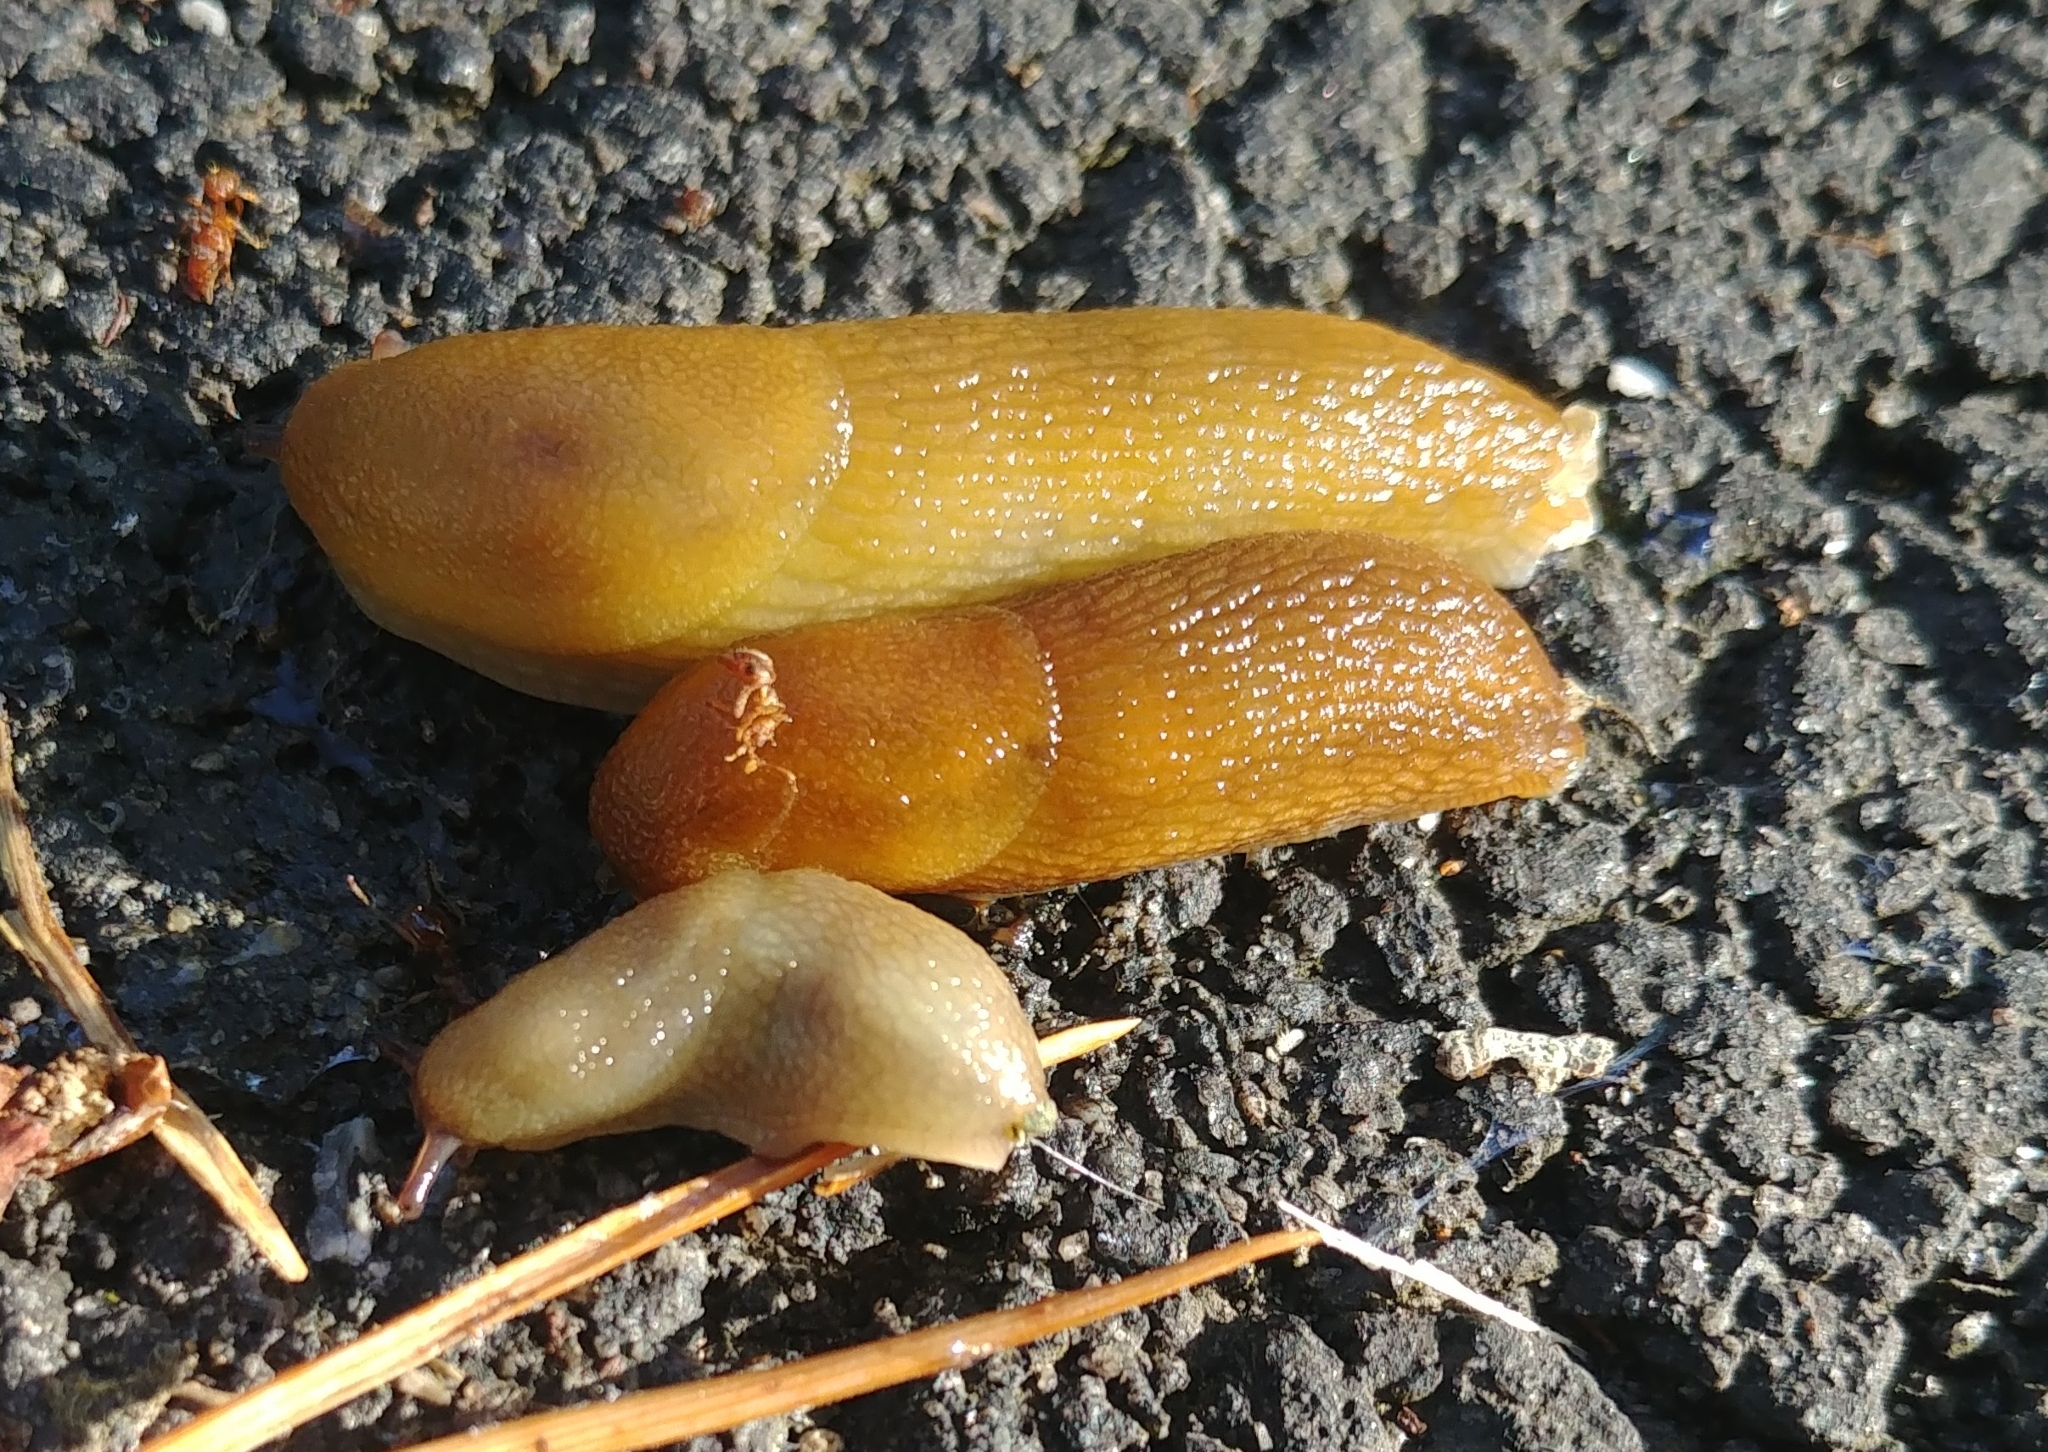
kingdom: Animalia
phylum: Mollusca
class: Gastropoda
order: Stylommatophora
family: Arionidae
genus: Arion
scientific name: Arion subfuscus
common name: Dusky arion
